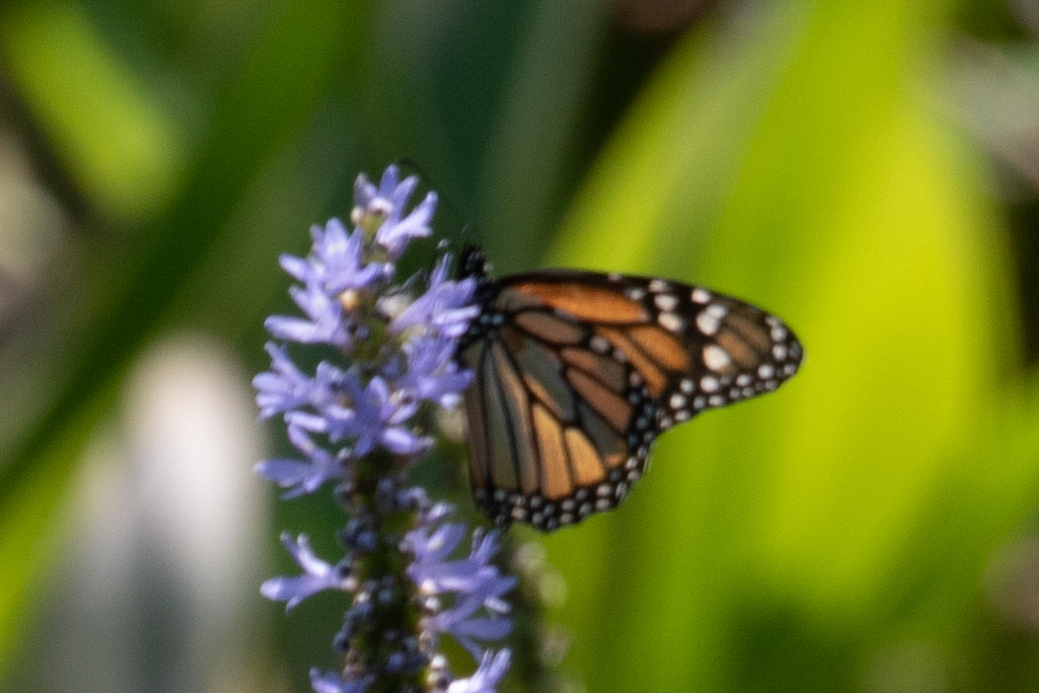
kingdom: Animalia
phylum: Arthropoda
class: Insecta
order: Lepidoptera
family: Nymphalidae
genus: Danaus
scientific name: Danaus plexippus
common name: Monarch
